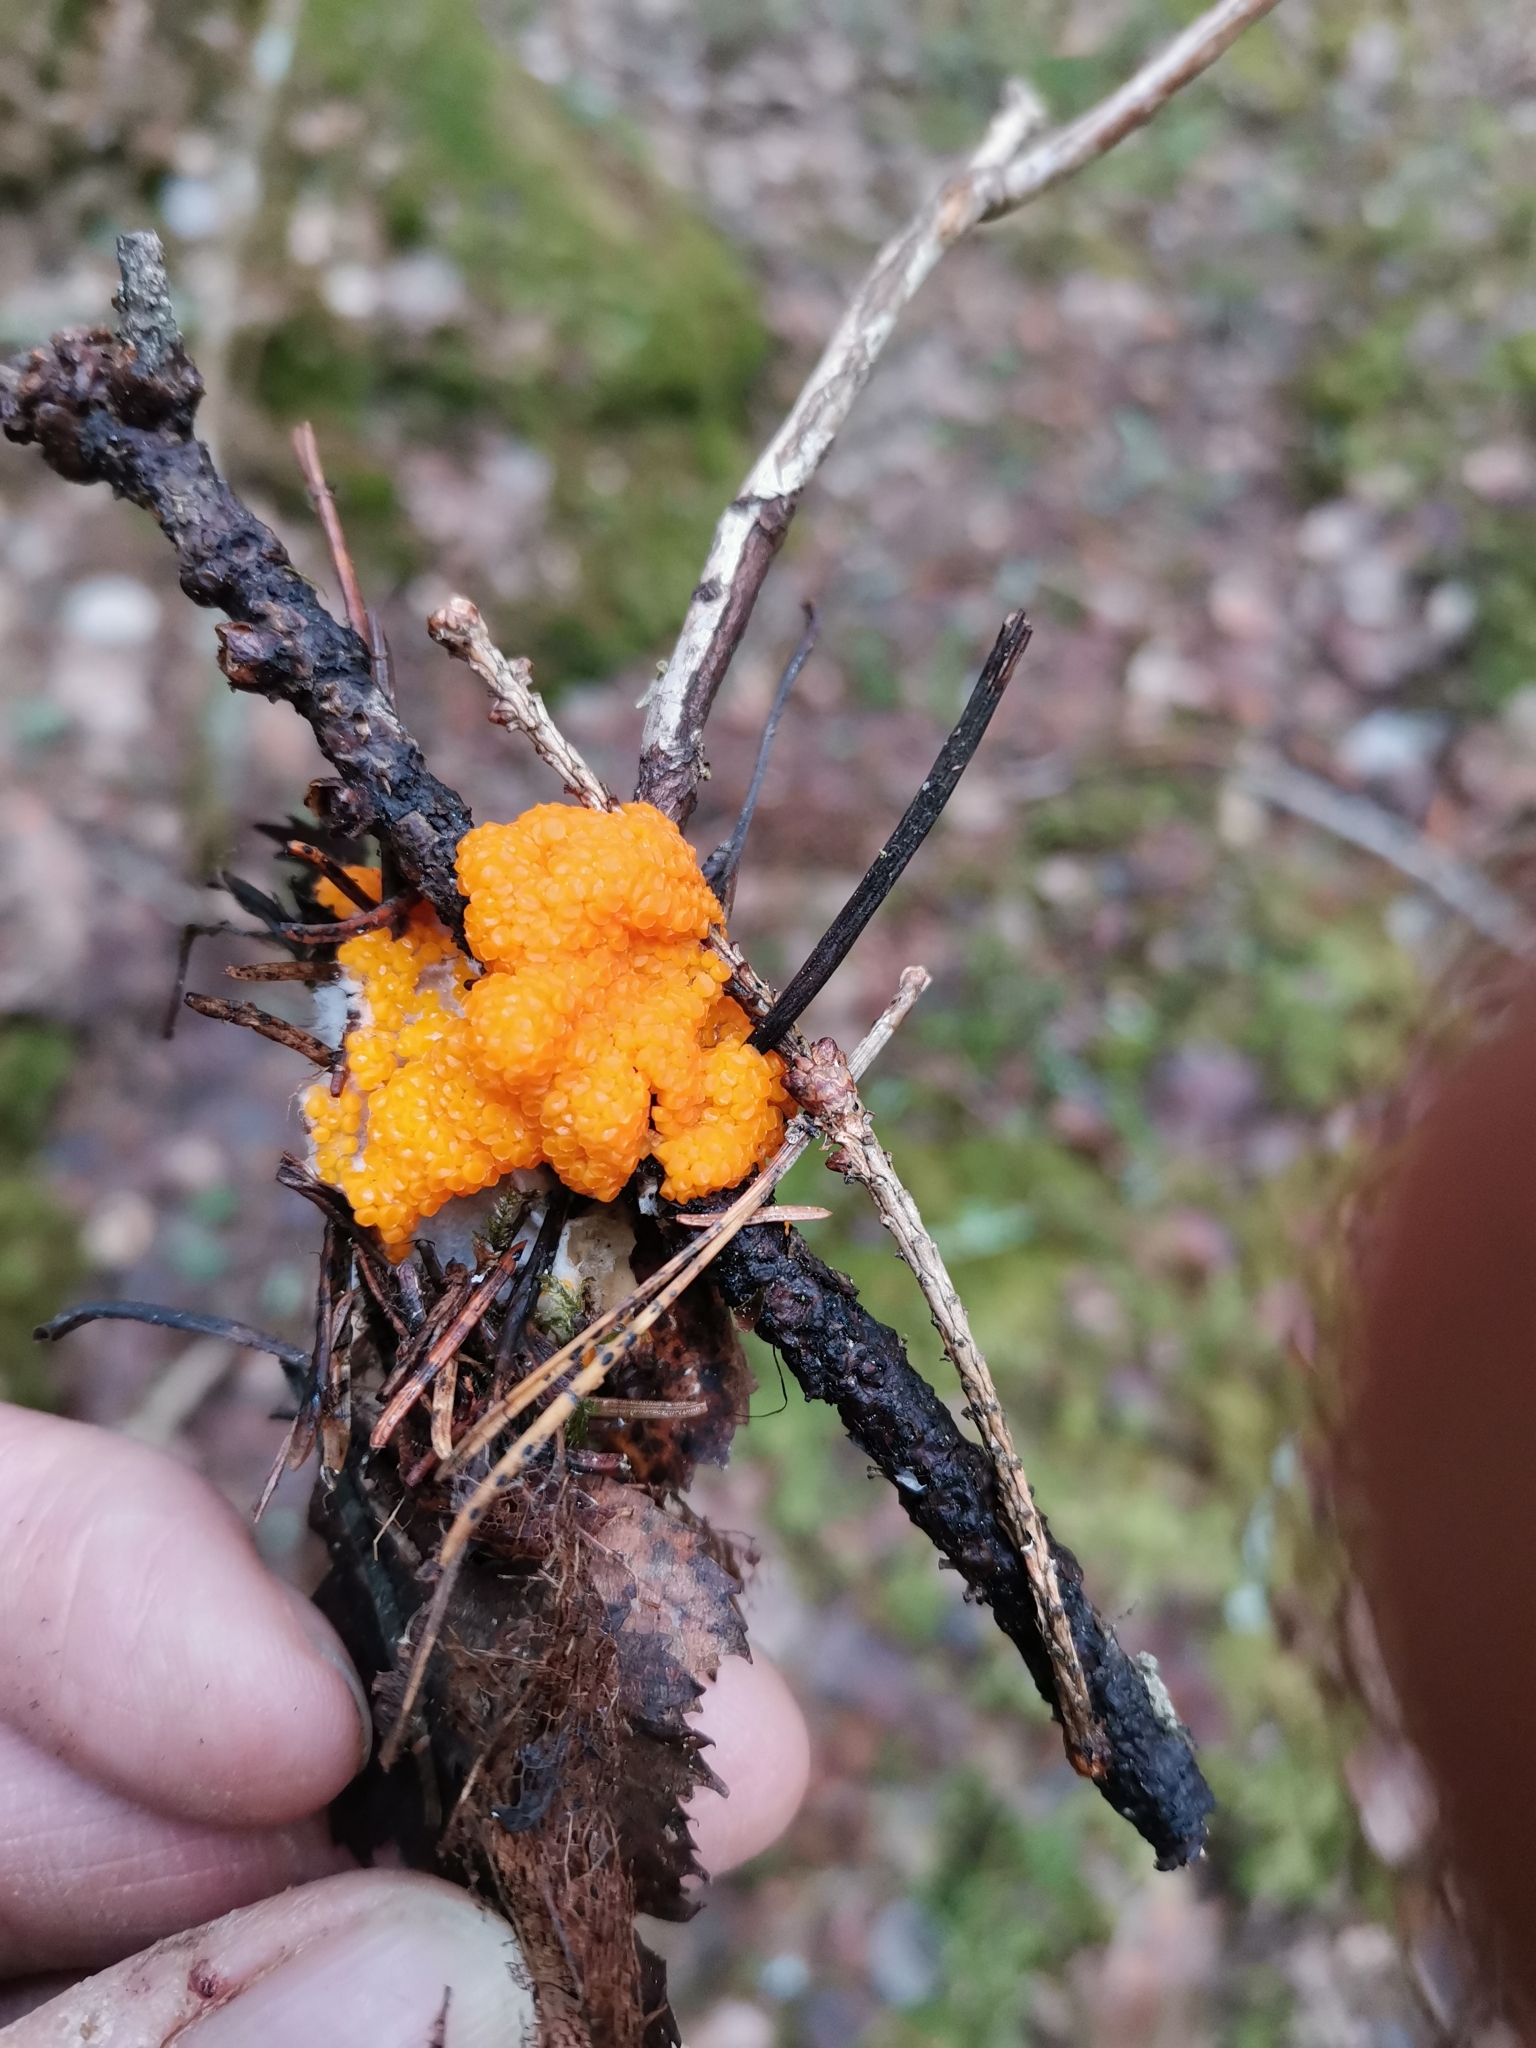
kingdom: Fungi
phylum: Ascomycota
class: Pezizomycetes
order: Pezizales
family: Pyronemataceae
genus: Byssonectria
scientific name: Byssonectria terrestris
